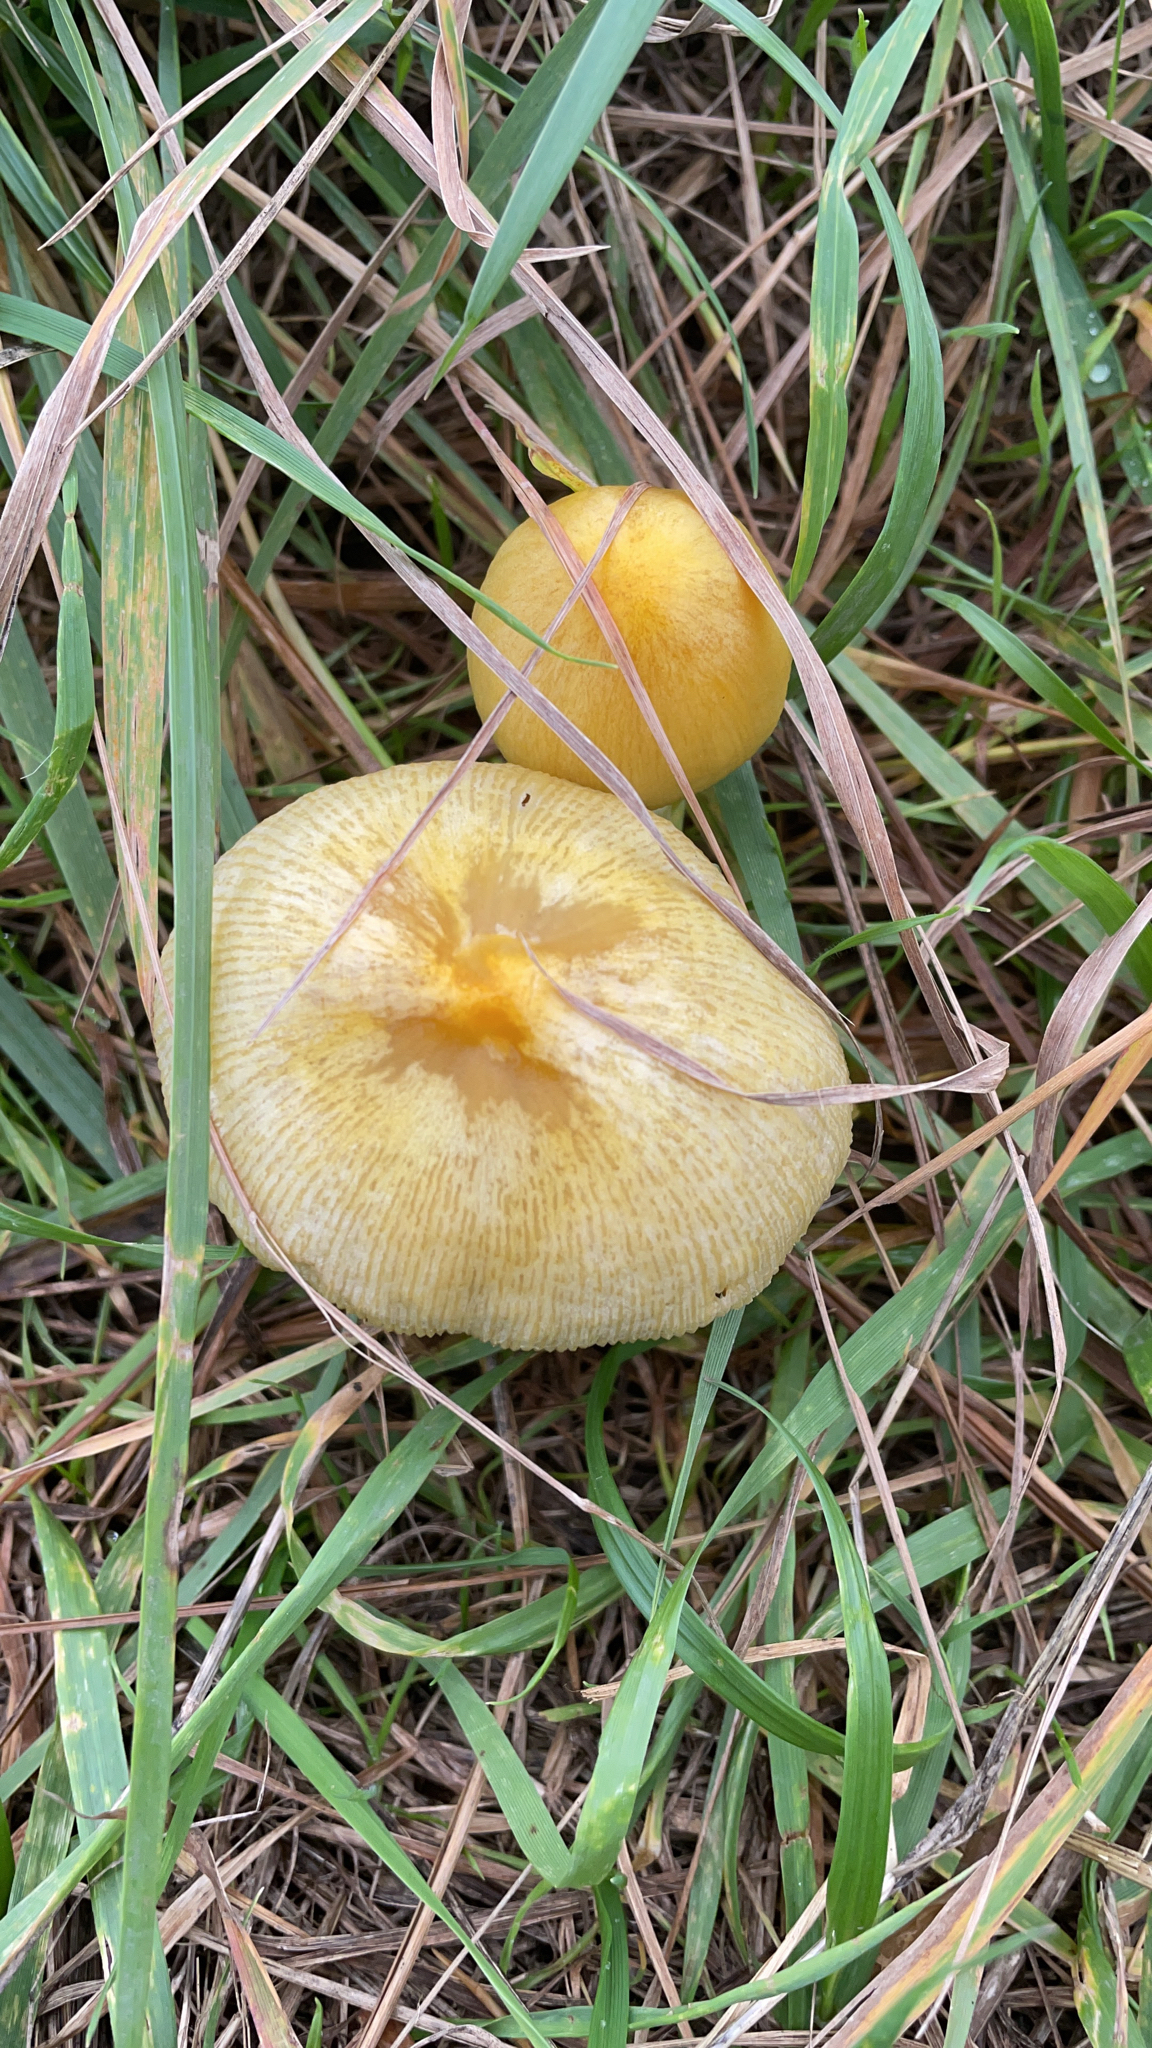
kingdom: Fungi
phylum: Basidiomycota
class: Agaricomycetes
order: Agaricales
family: Bolbitiaceae
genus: Bolbitius
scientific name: Bolbitius titubans
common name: Yellow fieldcap
